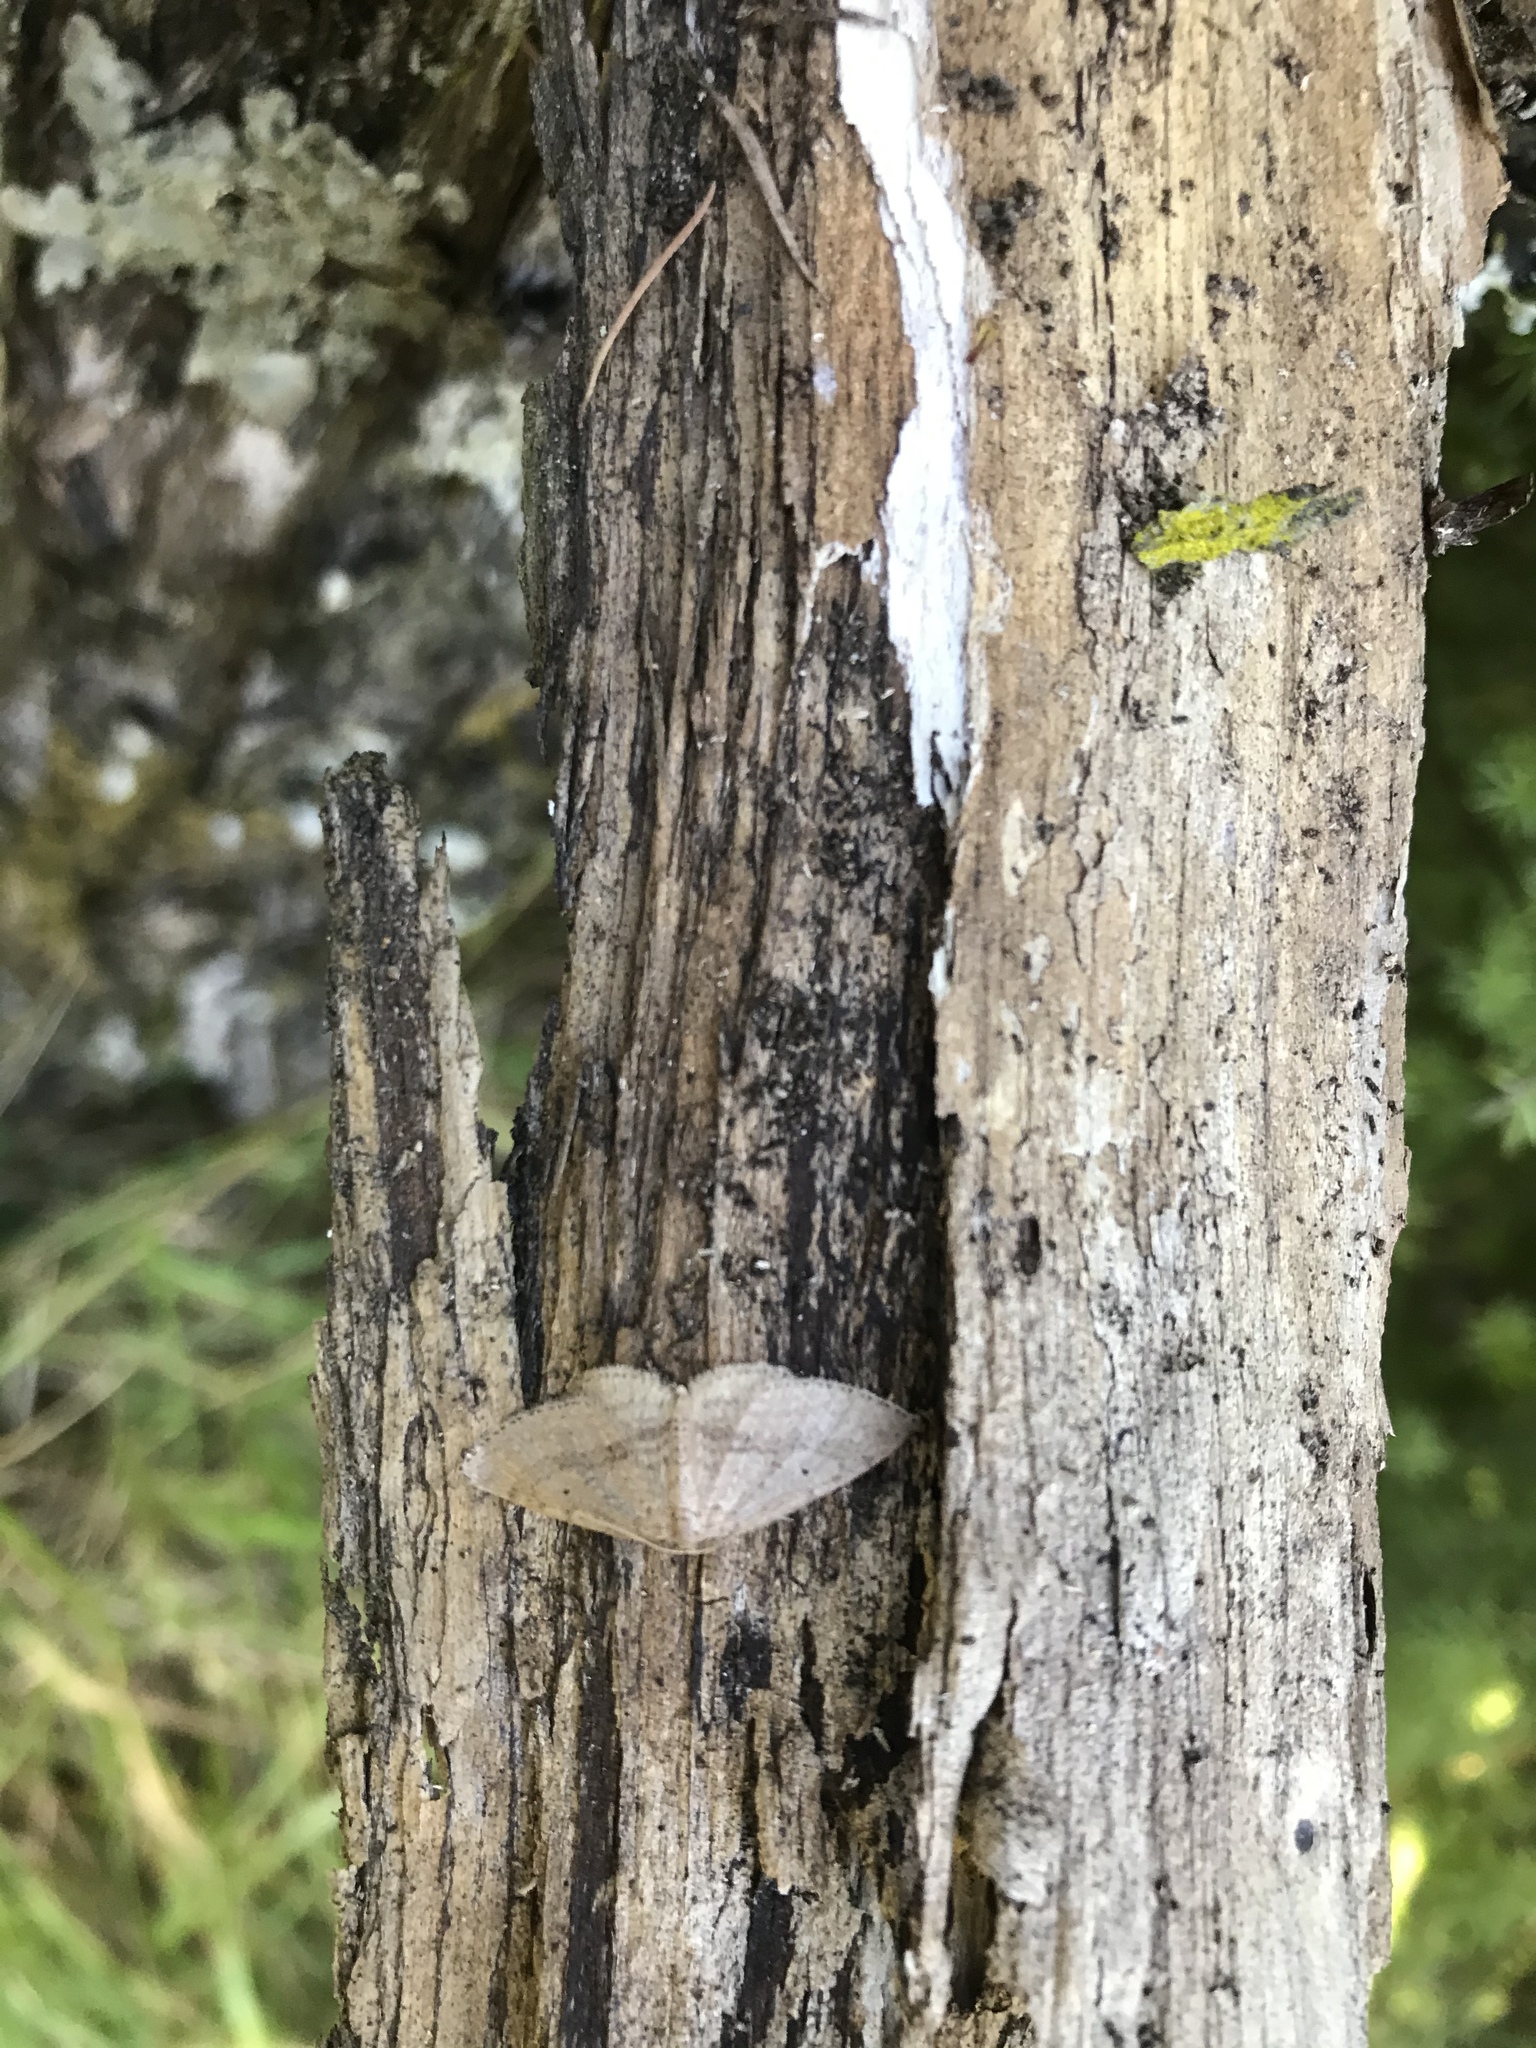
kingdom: Animalia
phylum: Arthropoda
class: Insecta
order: Lepidoptera
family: Geometridae
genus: Poecilasthena
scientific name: Poecilasthena schistaria
